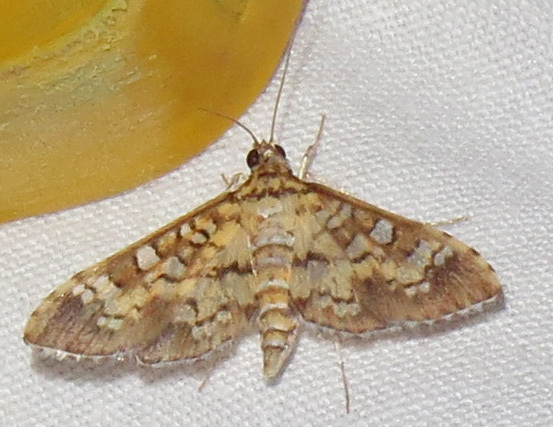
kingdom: Animalia
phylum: Arthropoda
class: Insecta
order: Lepidoptera
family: Crambidae
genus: Samea
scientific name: Samea ecclesialis
